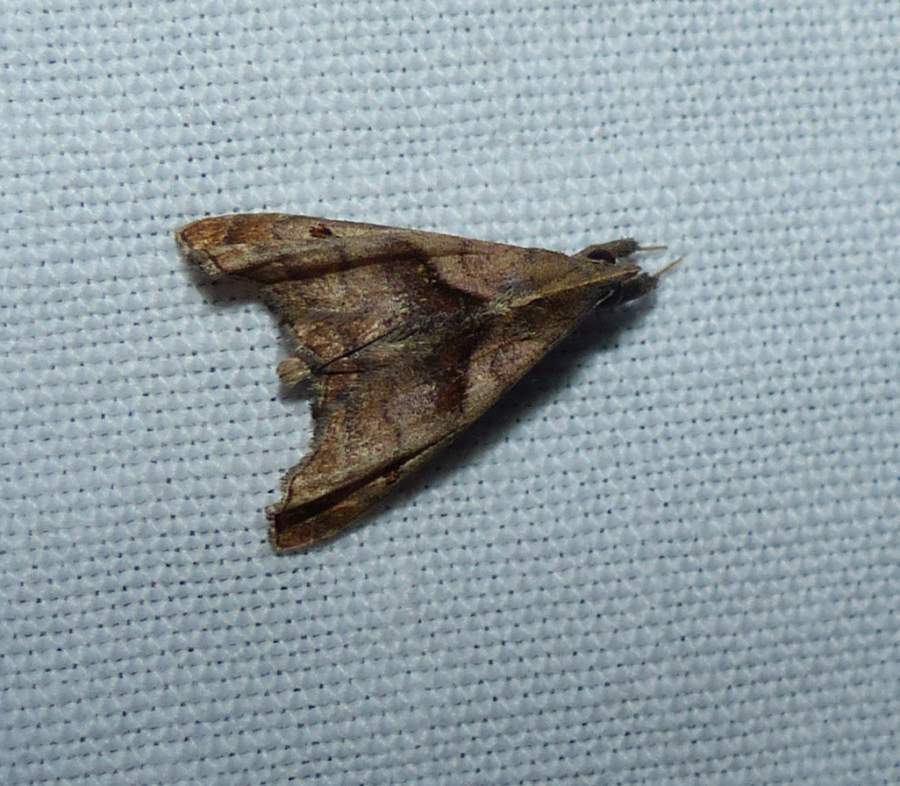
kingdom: Animalia
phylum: Arthropoda
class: Insecta
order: Lepidoptera
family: Erebidae
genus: Palthis
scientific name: Palthis angulalis
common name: Dark-spotted palthis moth
